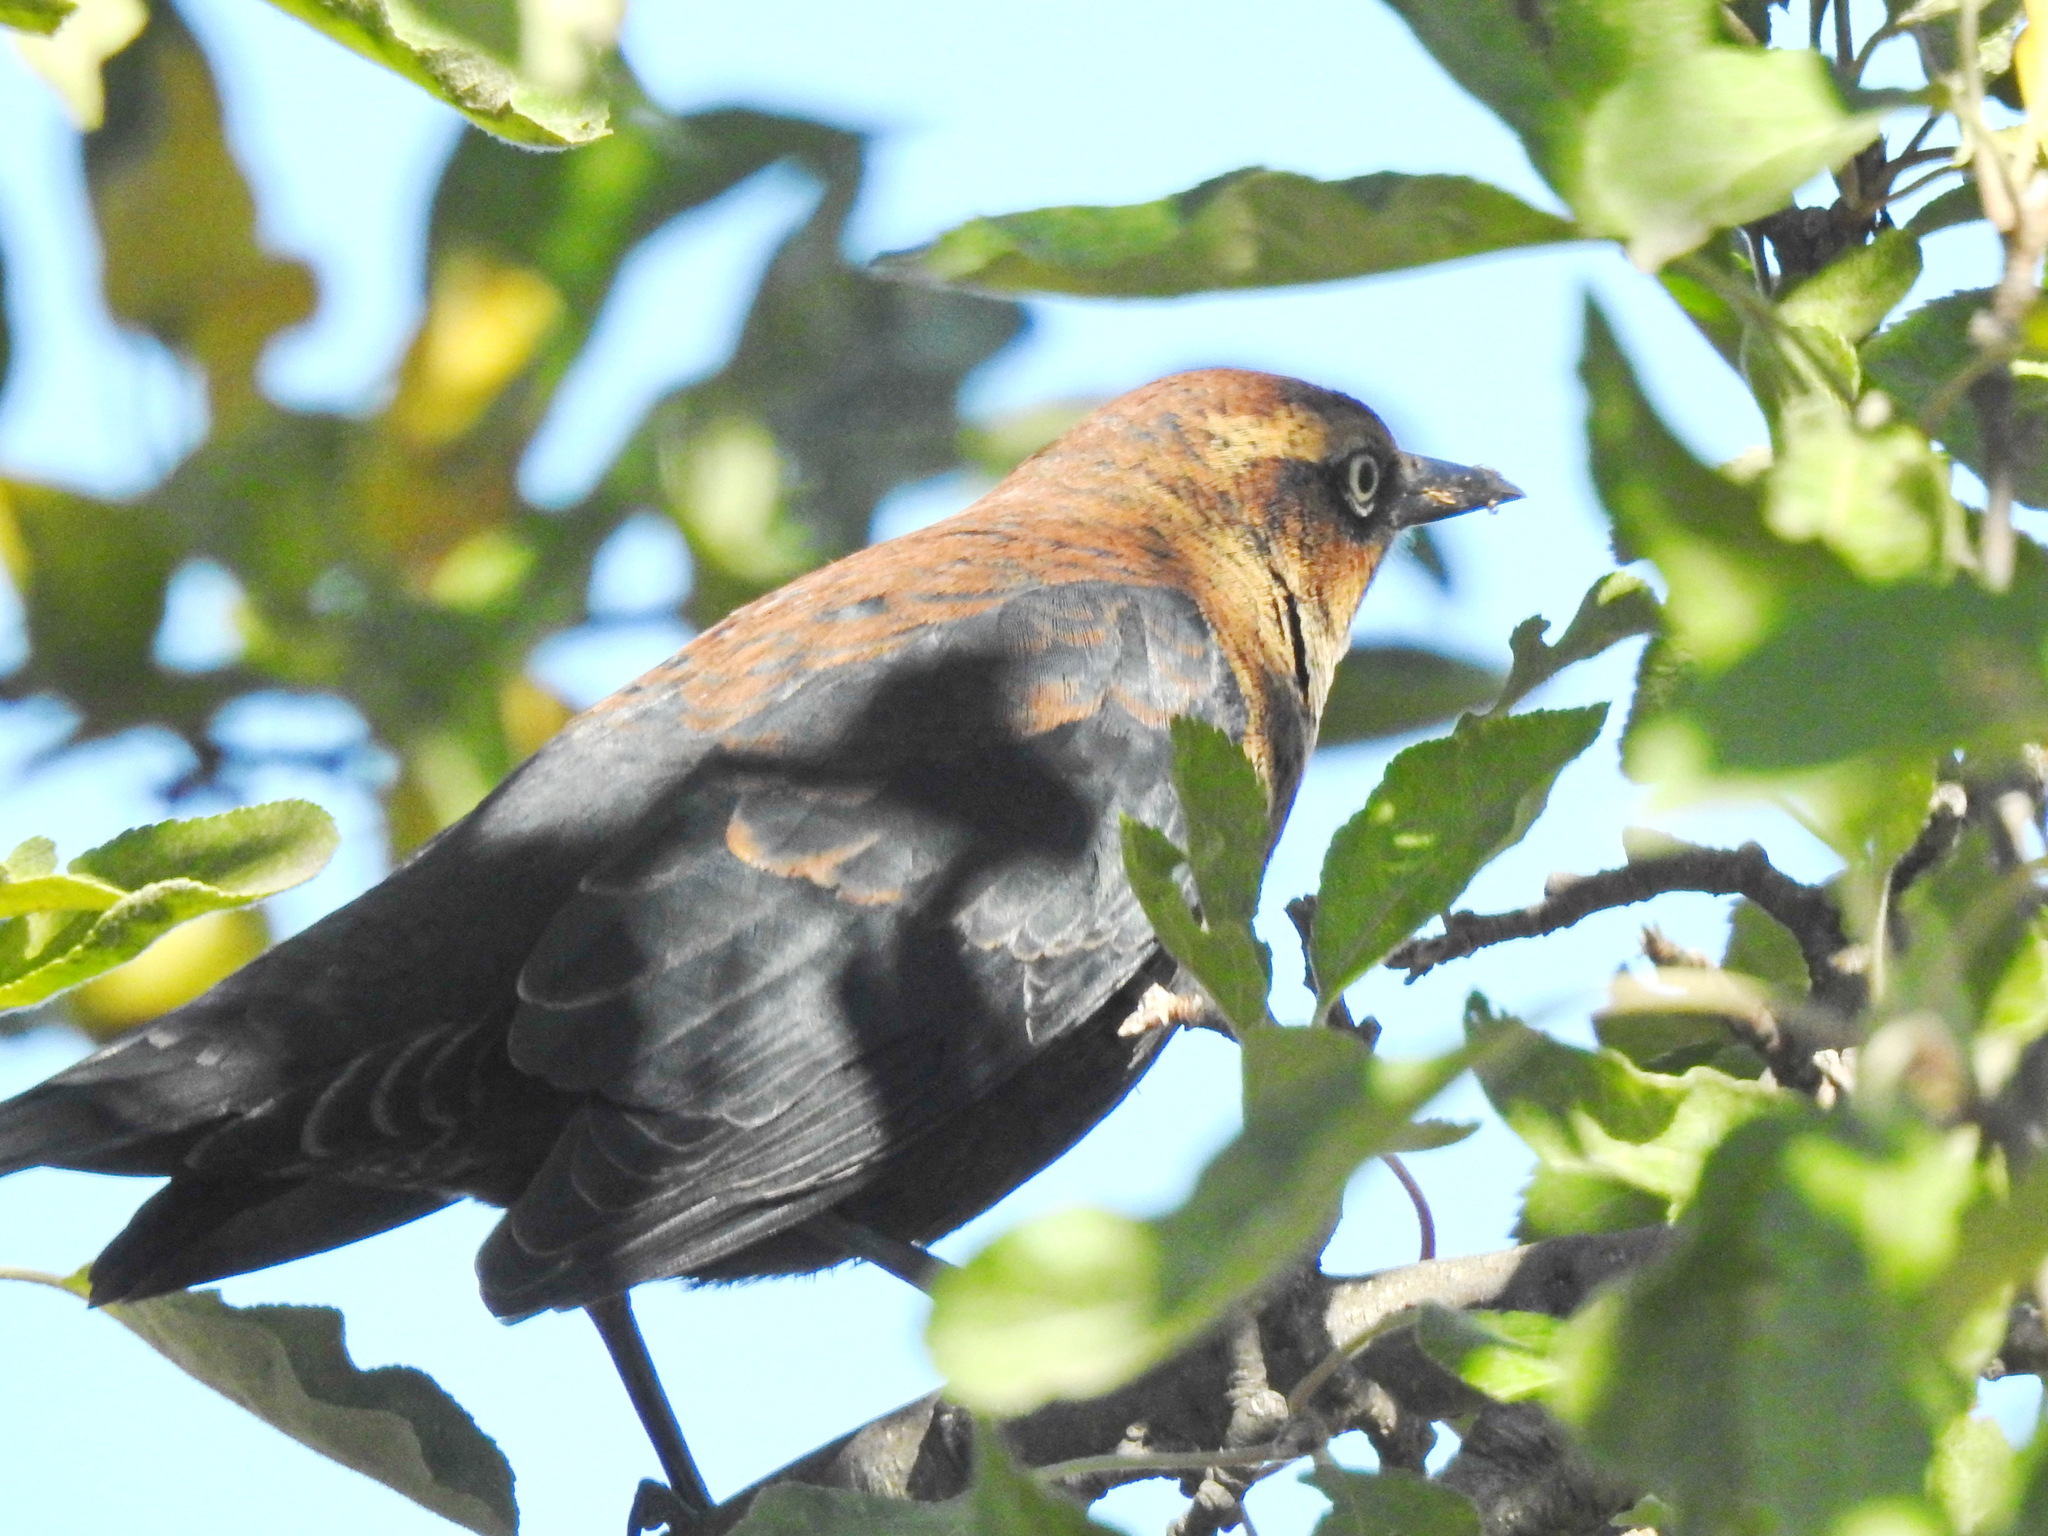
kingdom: Animalia
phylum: Chordata
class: Aves
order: Passeriformes
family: Icteridae
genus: Euphagus
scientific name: Euphagus carolinus
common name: Rusty blackbird
